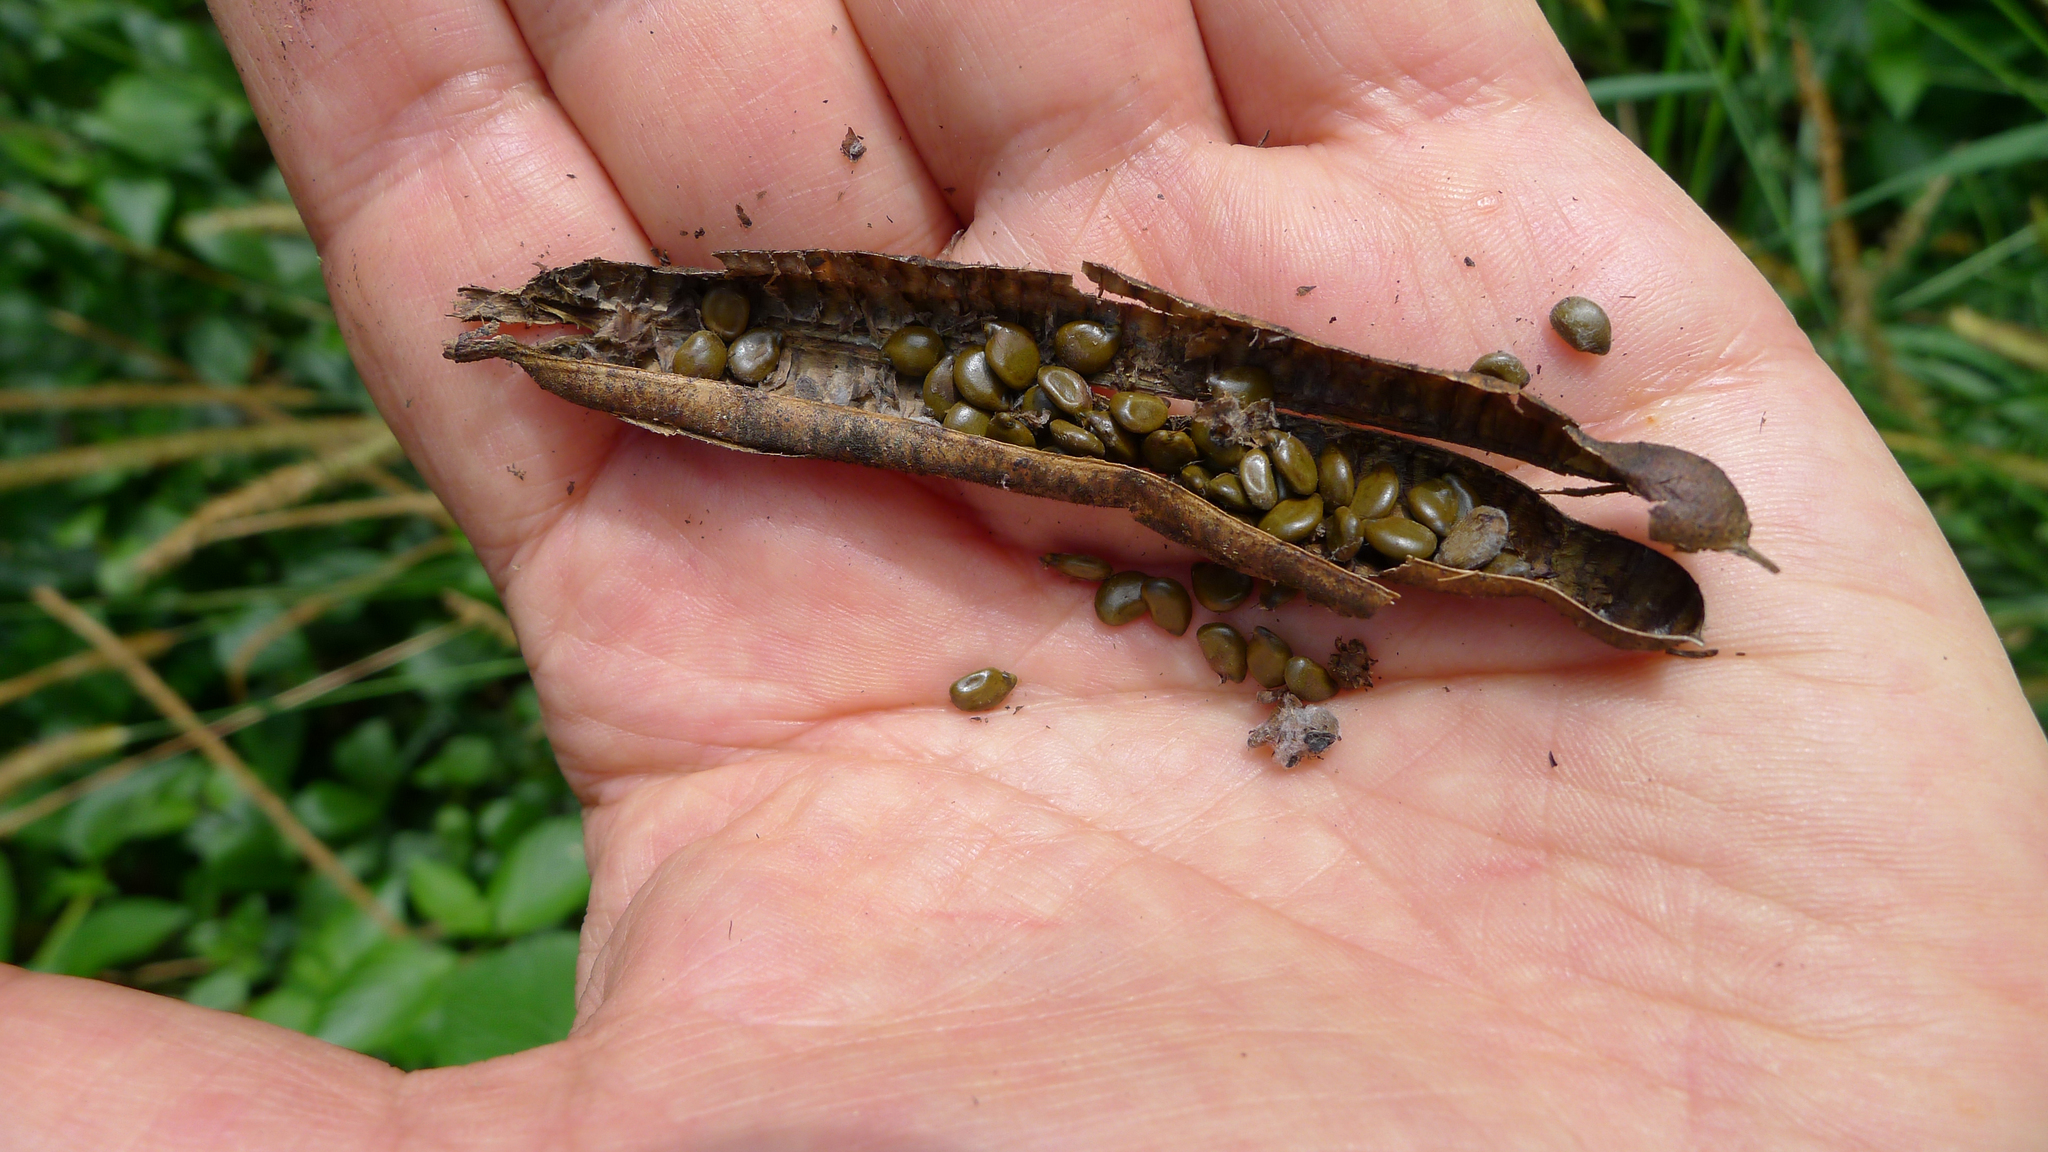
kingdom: Plantae
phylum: Tracheophyta
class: Magnoliopsida
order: Fabales
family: Fabaceae
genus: Senna
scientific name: Senna septemtrionalis
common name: Arsenic bush
